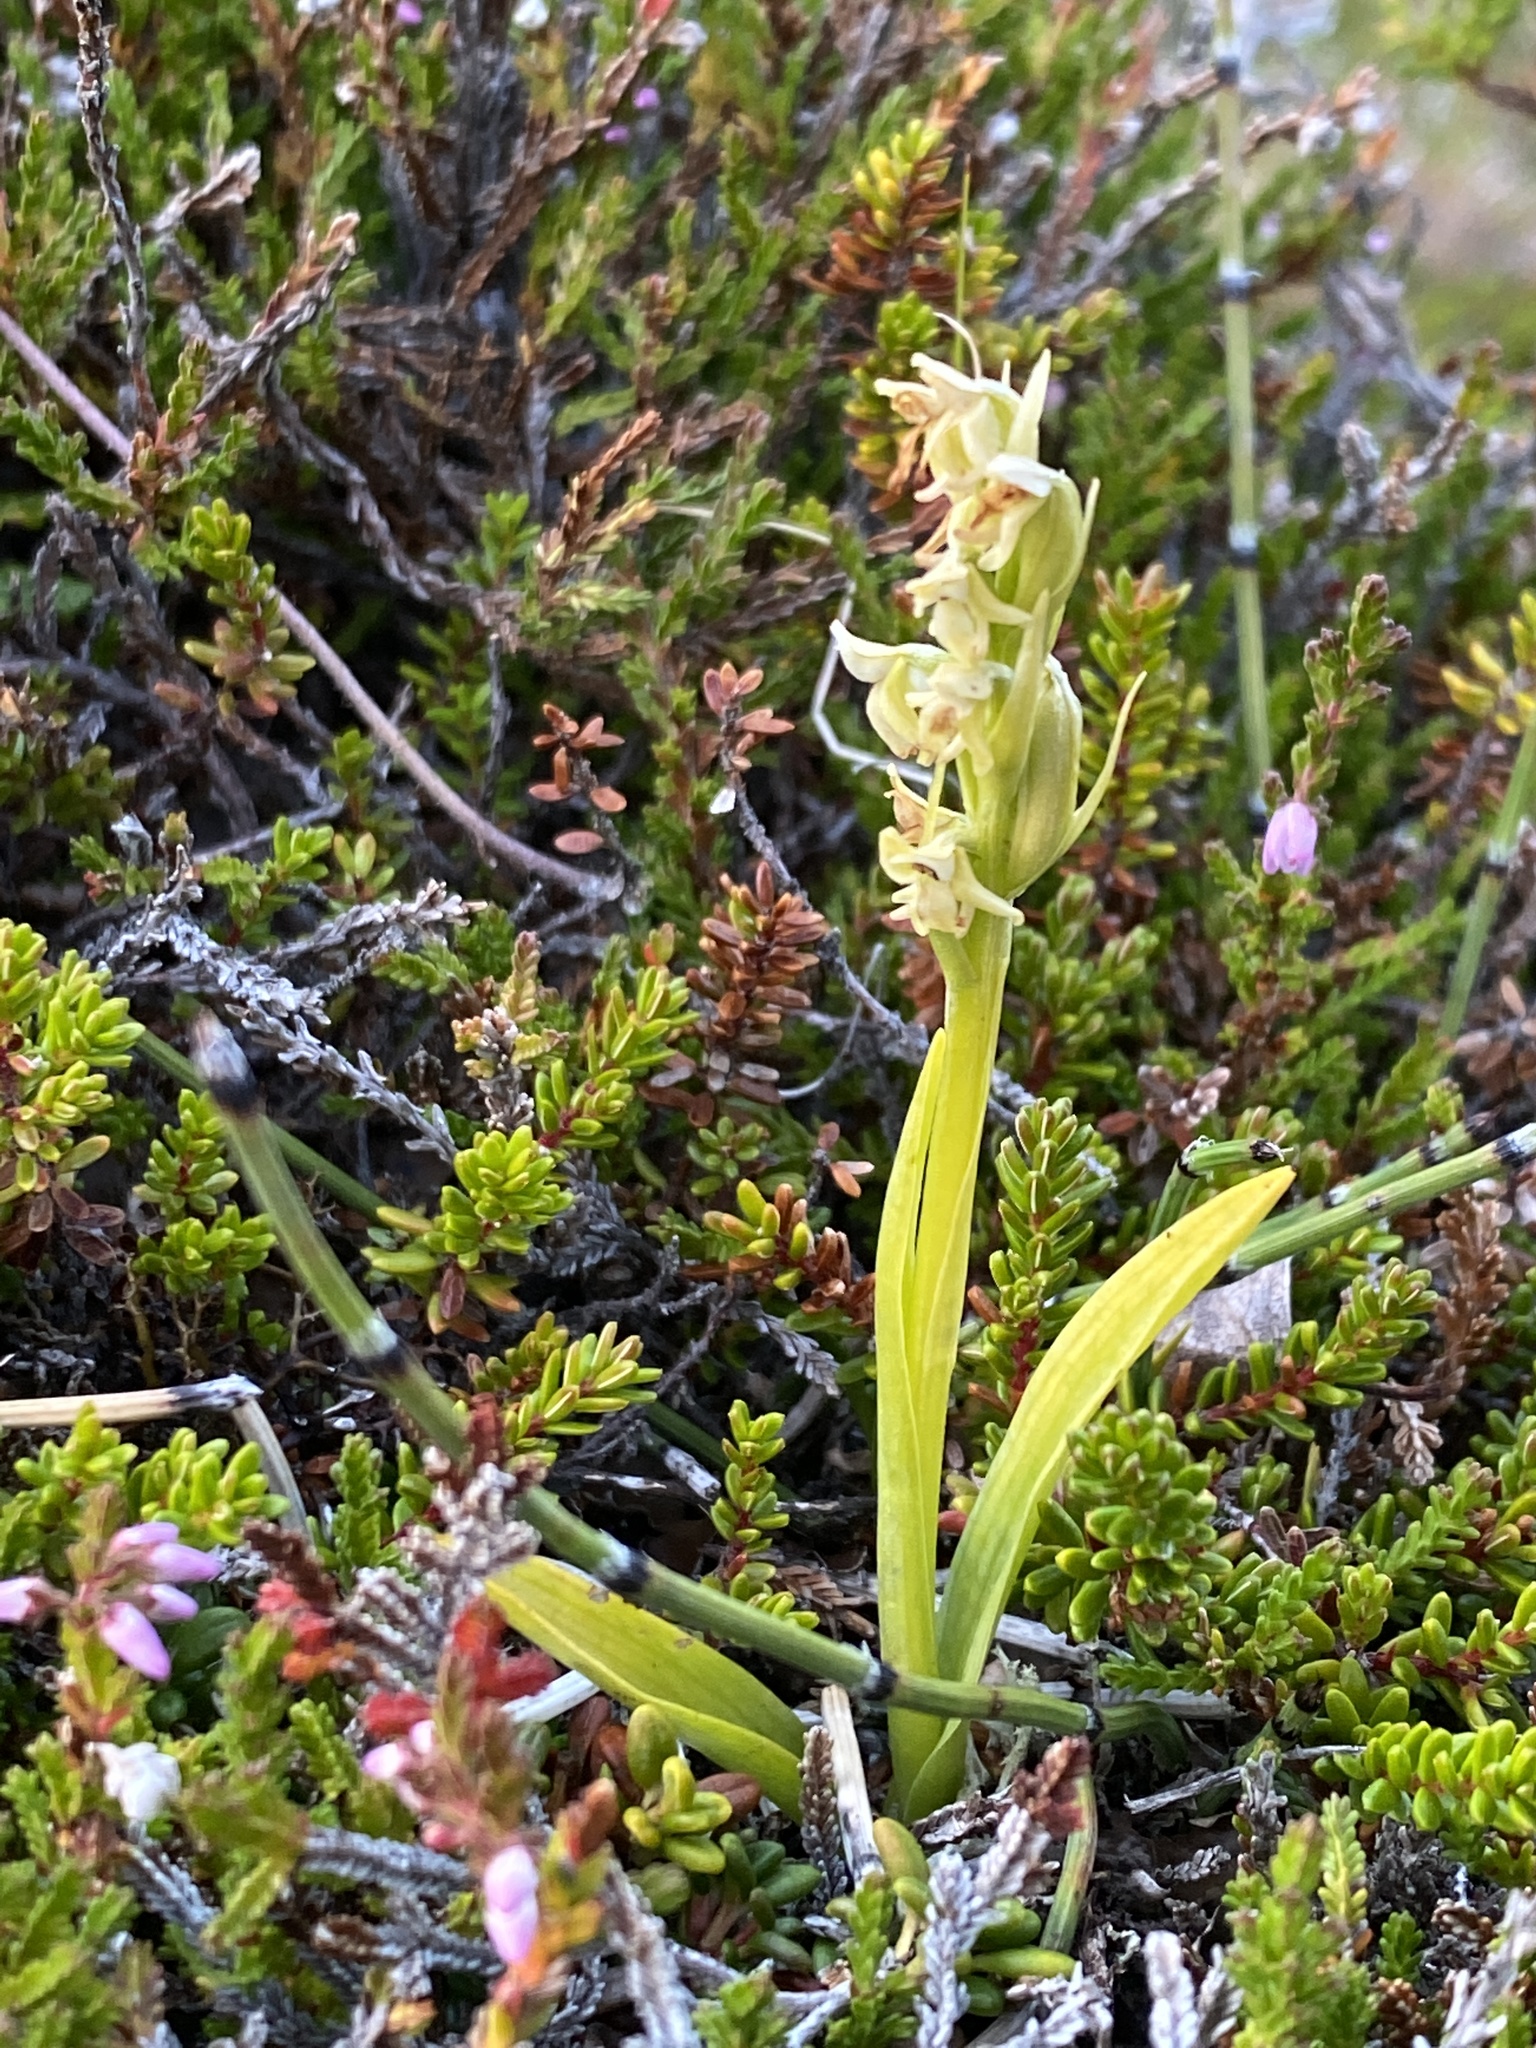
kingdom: Plantae
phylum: Tracheophyta
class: Liliopsida
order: Asparagales
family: Orchidaceae
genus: Platanthera
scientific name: Platanthera hyperborea
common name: Northern green orchid
